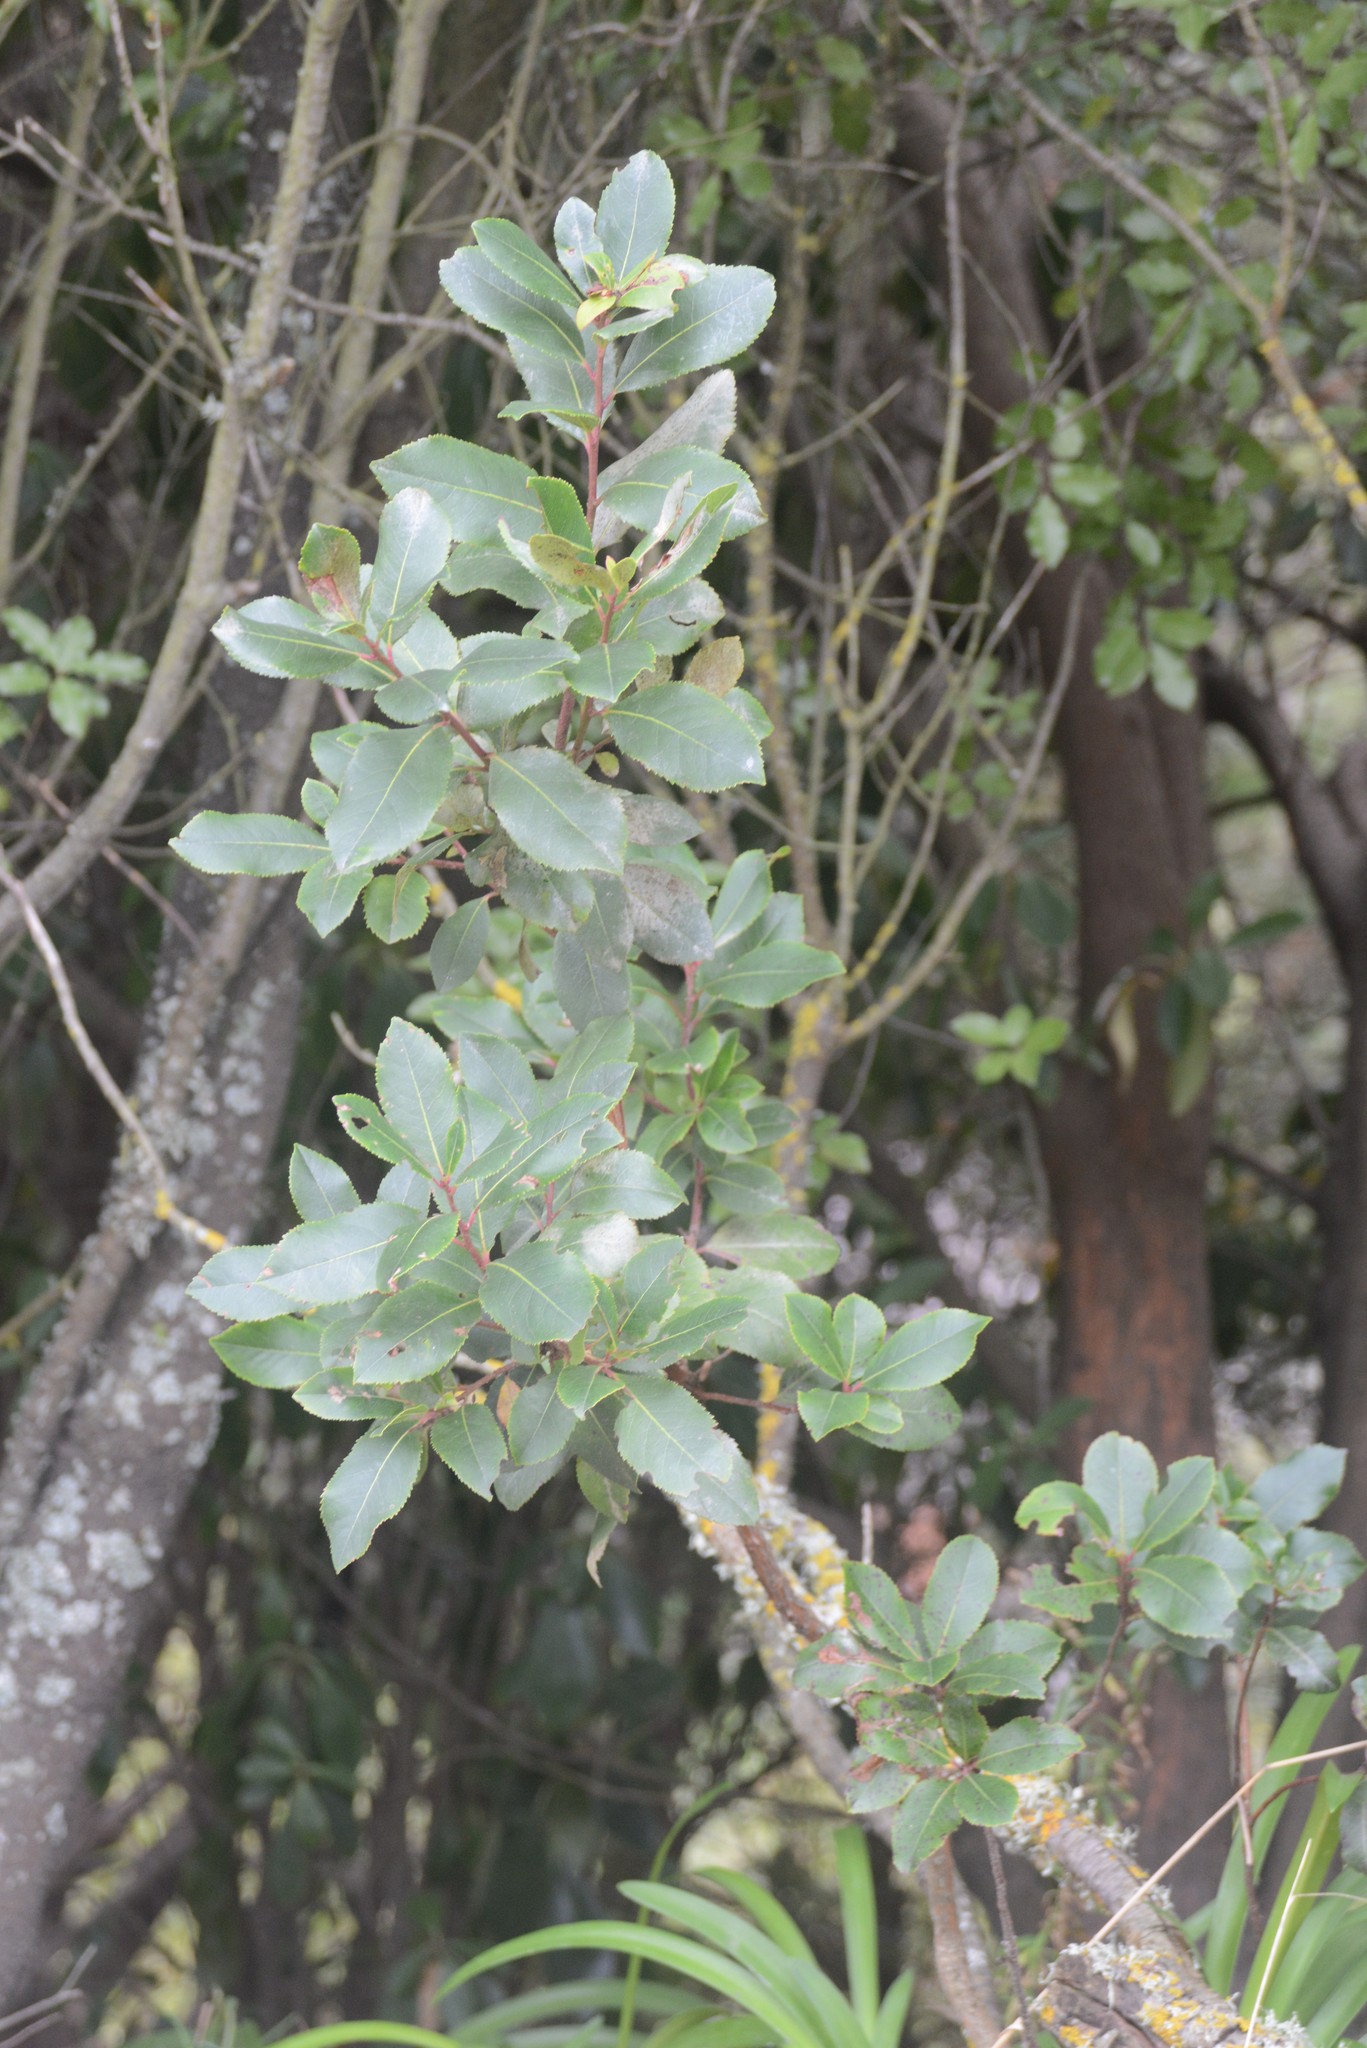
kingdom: Plantae
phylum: Tracheophyta
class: Magnoliopsida
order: Ericales
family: Ericaceae
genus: Arbutus
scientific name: Arbutus unedo
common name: Strawberry-tree
